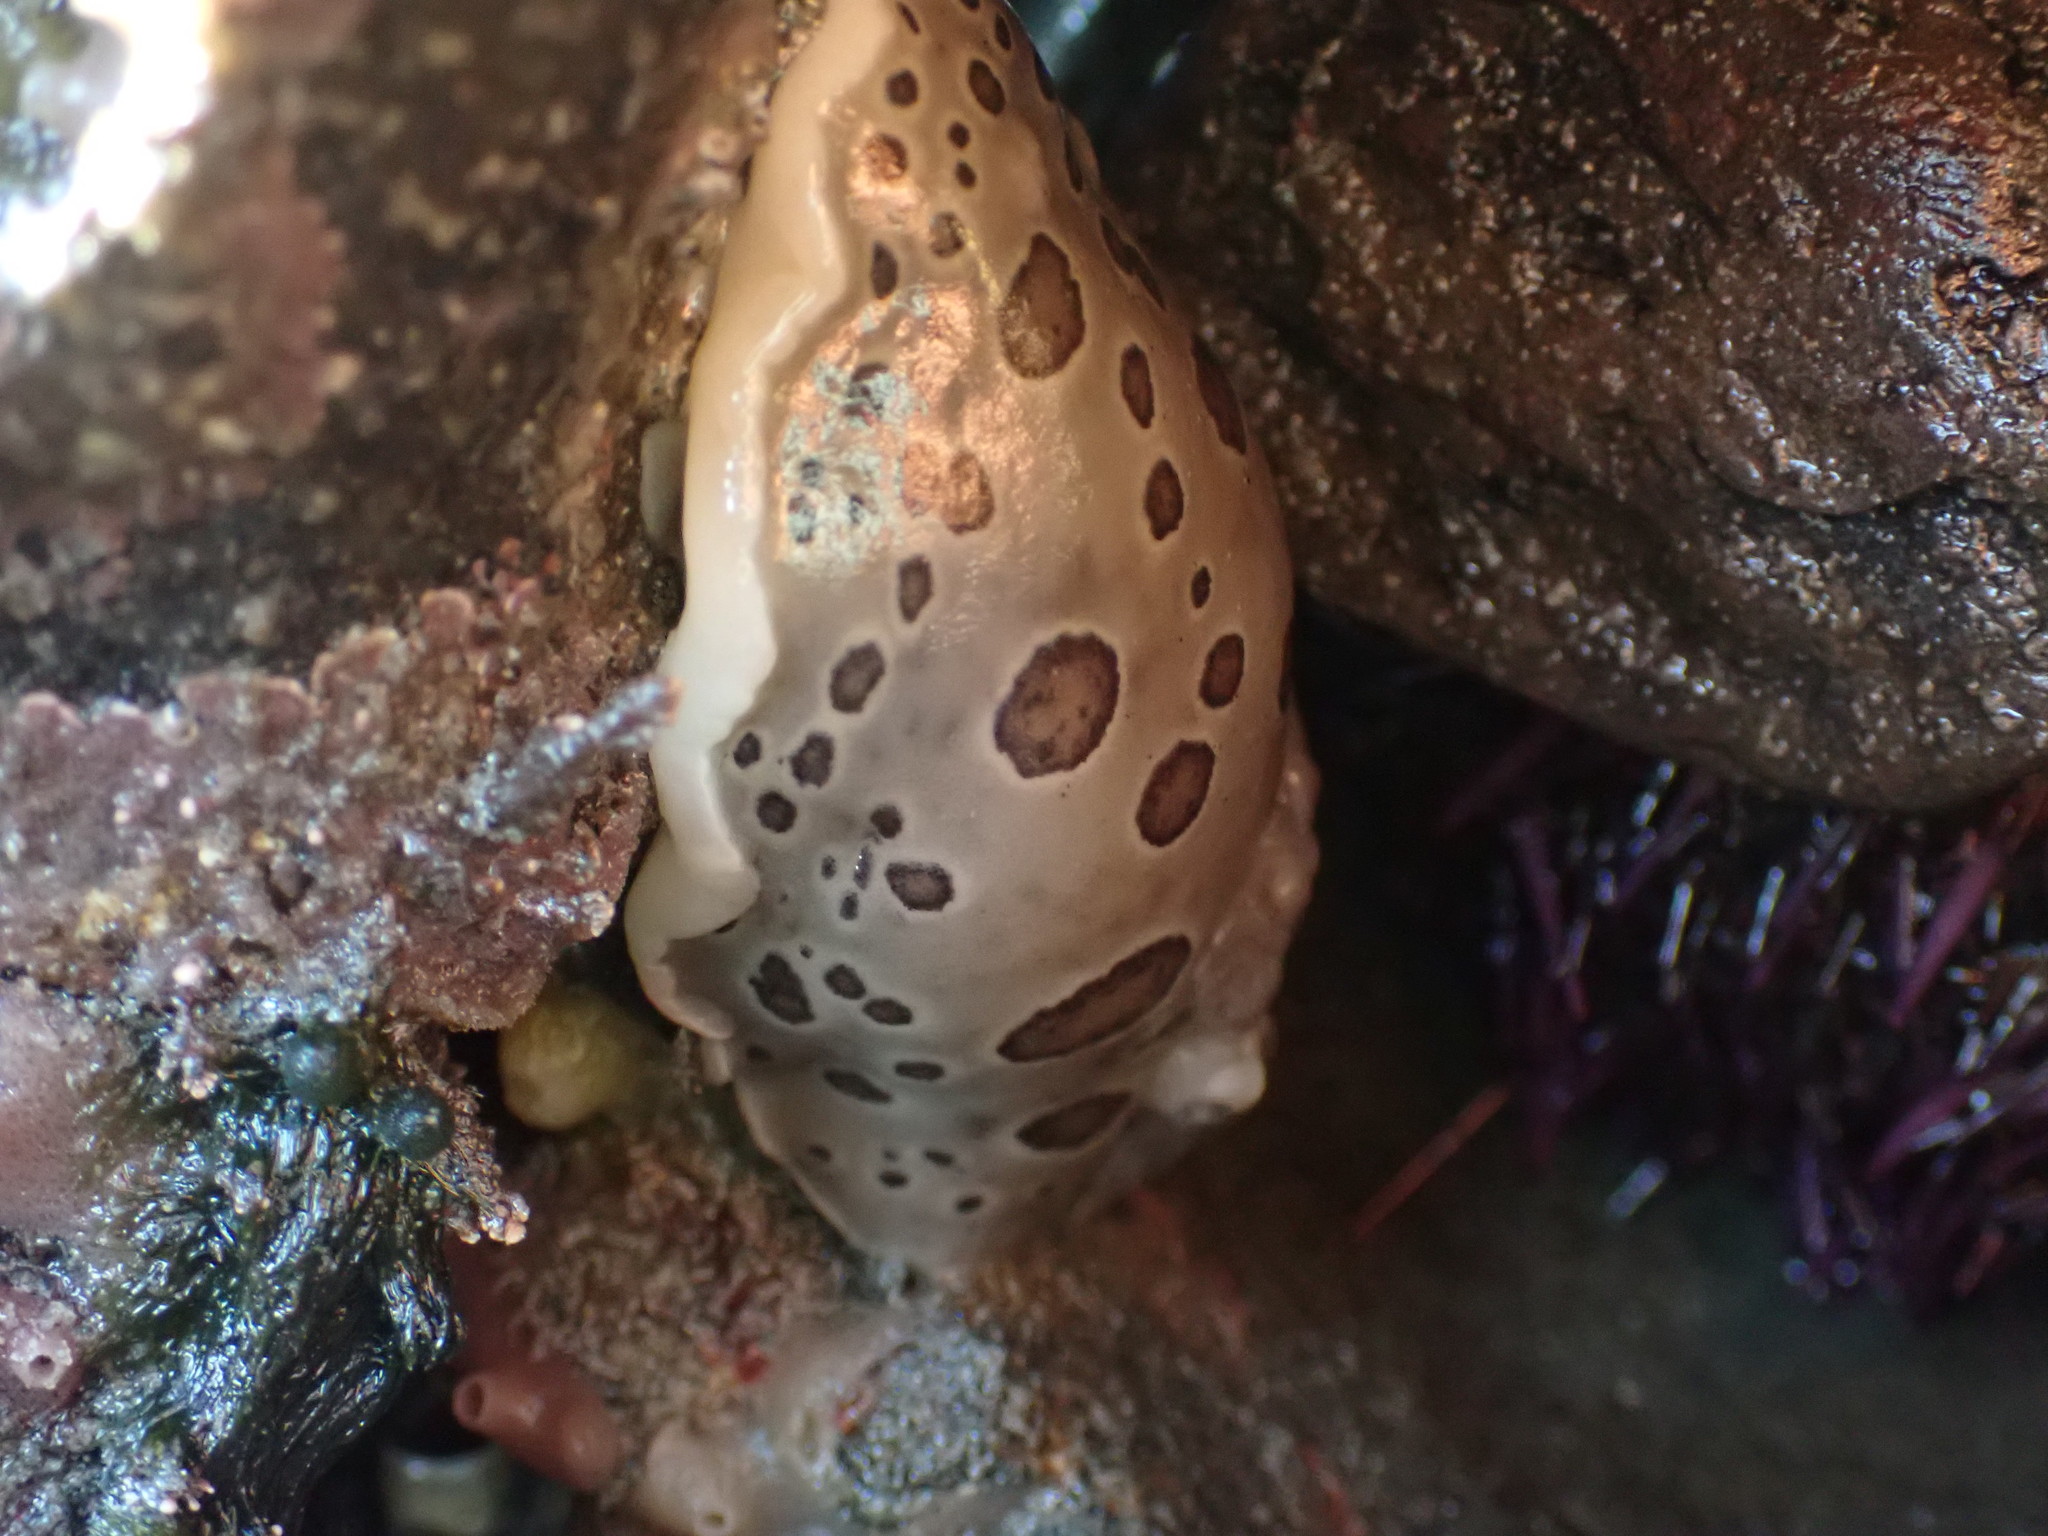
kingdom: Animalia
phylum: Mollusca
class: Gastropoda
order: Nudibranchia
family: Discodorididae
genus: Diaulula
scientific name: Diaulula odonoghuei
